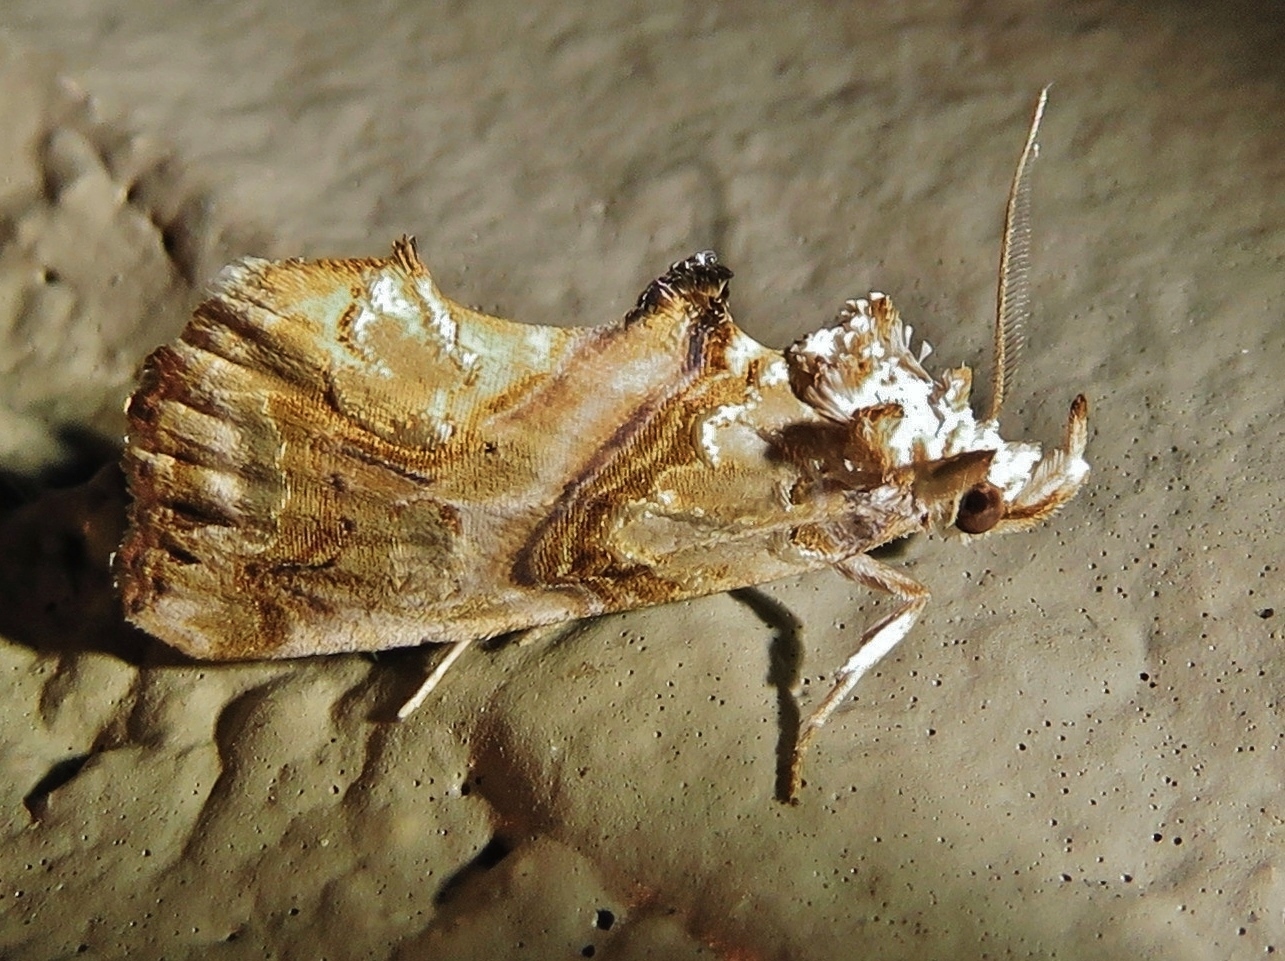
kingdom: Animalia
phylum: Arthropoda
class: Insecta
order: Lepidoptera
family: Erebidae
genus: Plusiodonta
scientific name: Plusiodonta compressipalpis
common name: Moonseed moth
